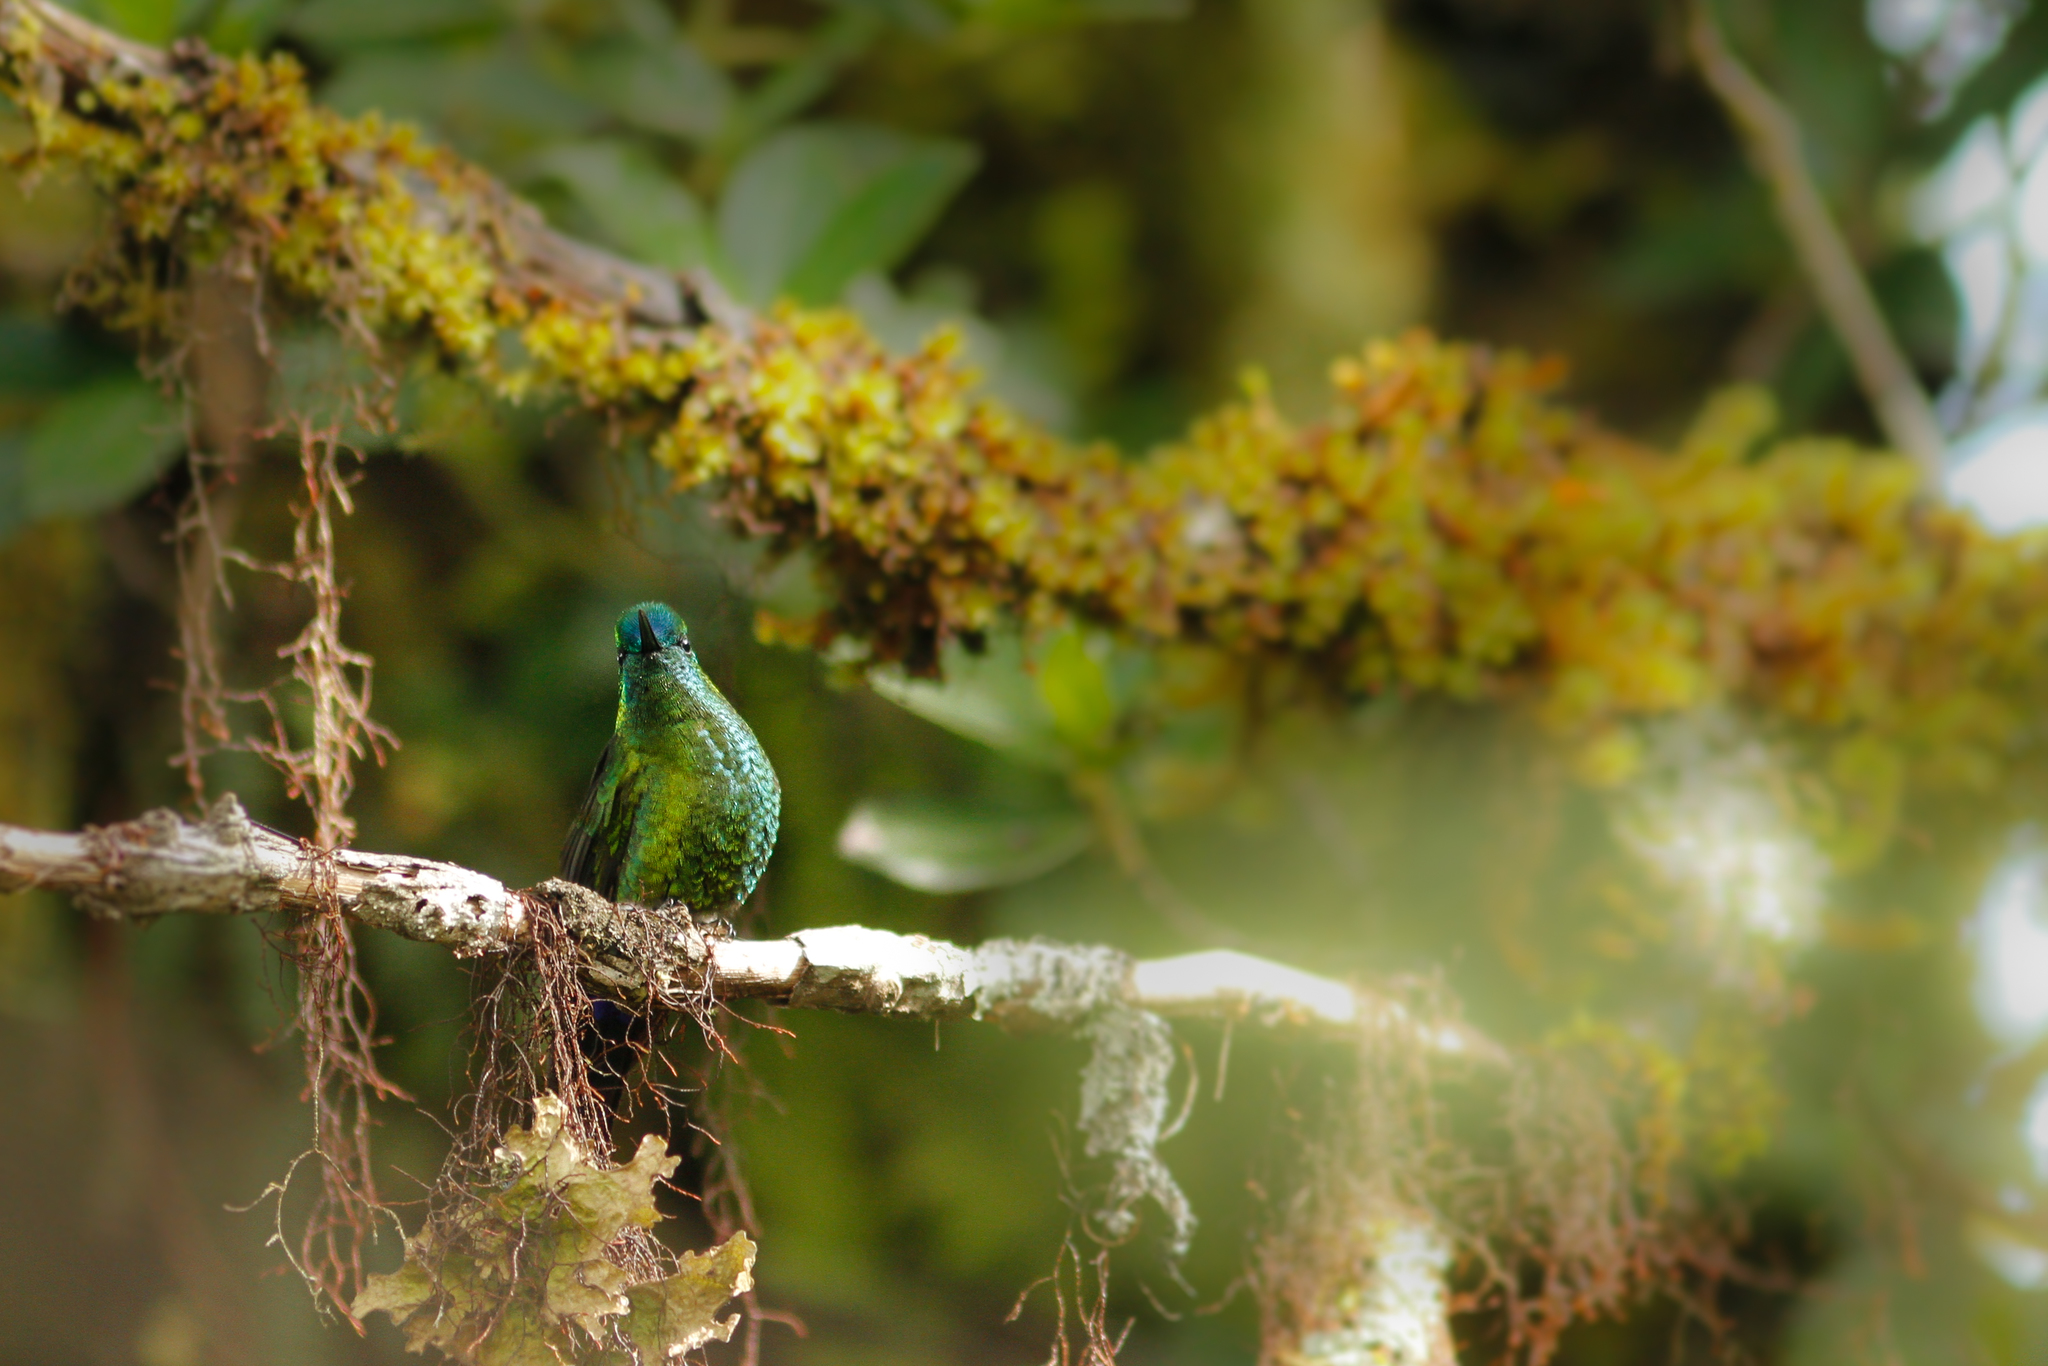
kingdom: Animalia
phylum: Chordata
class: Aves
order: Apodiformes
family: Trochilidae
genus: Eriocnemis
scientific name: Eriocnemis luciani
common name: Sapphire-vented puffleg
